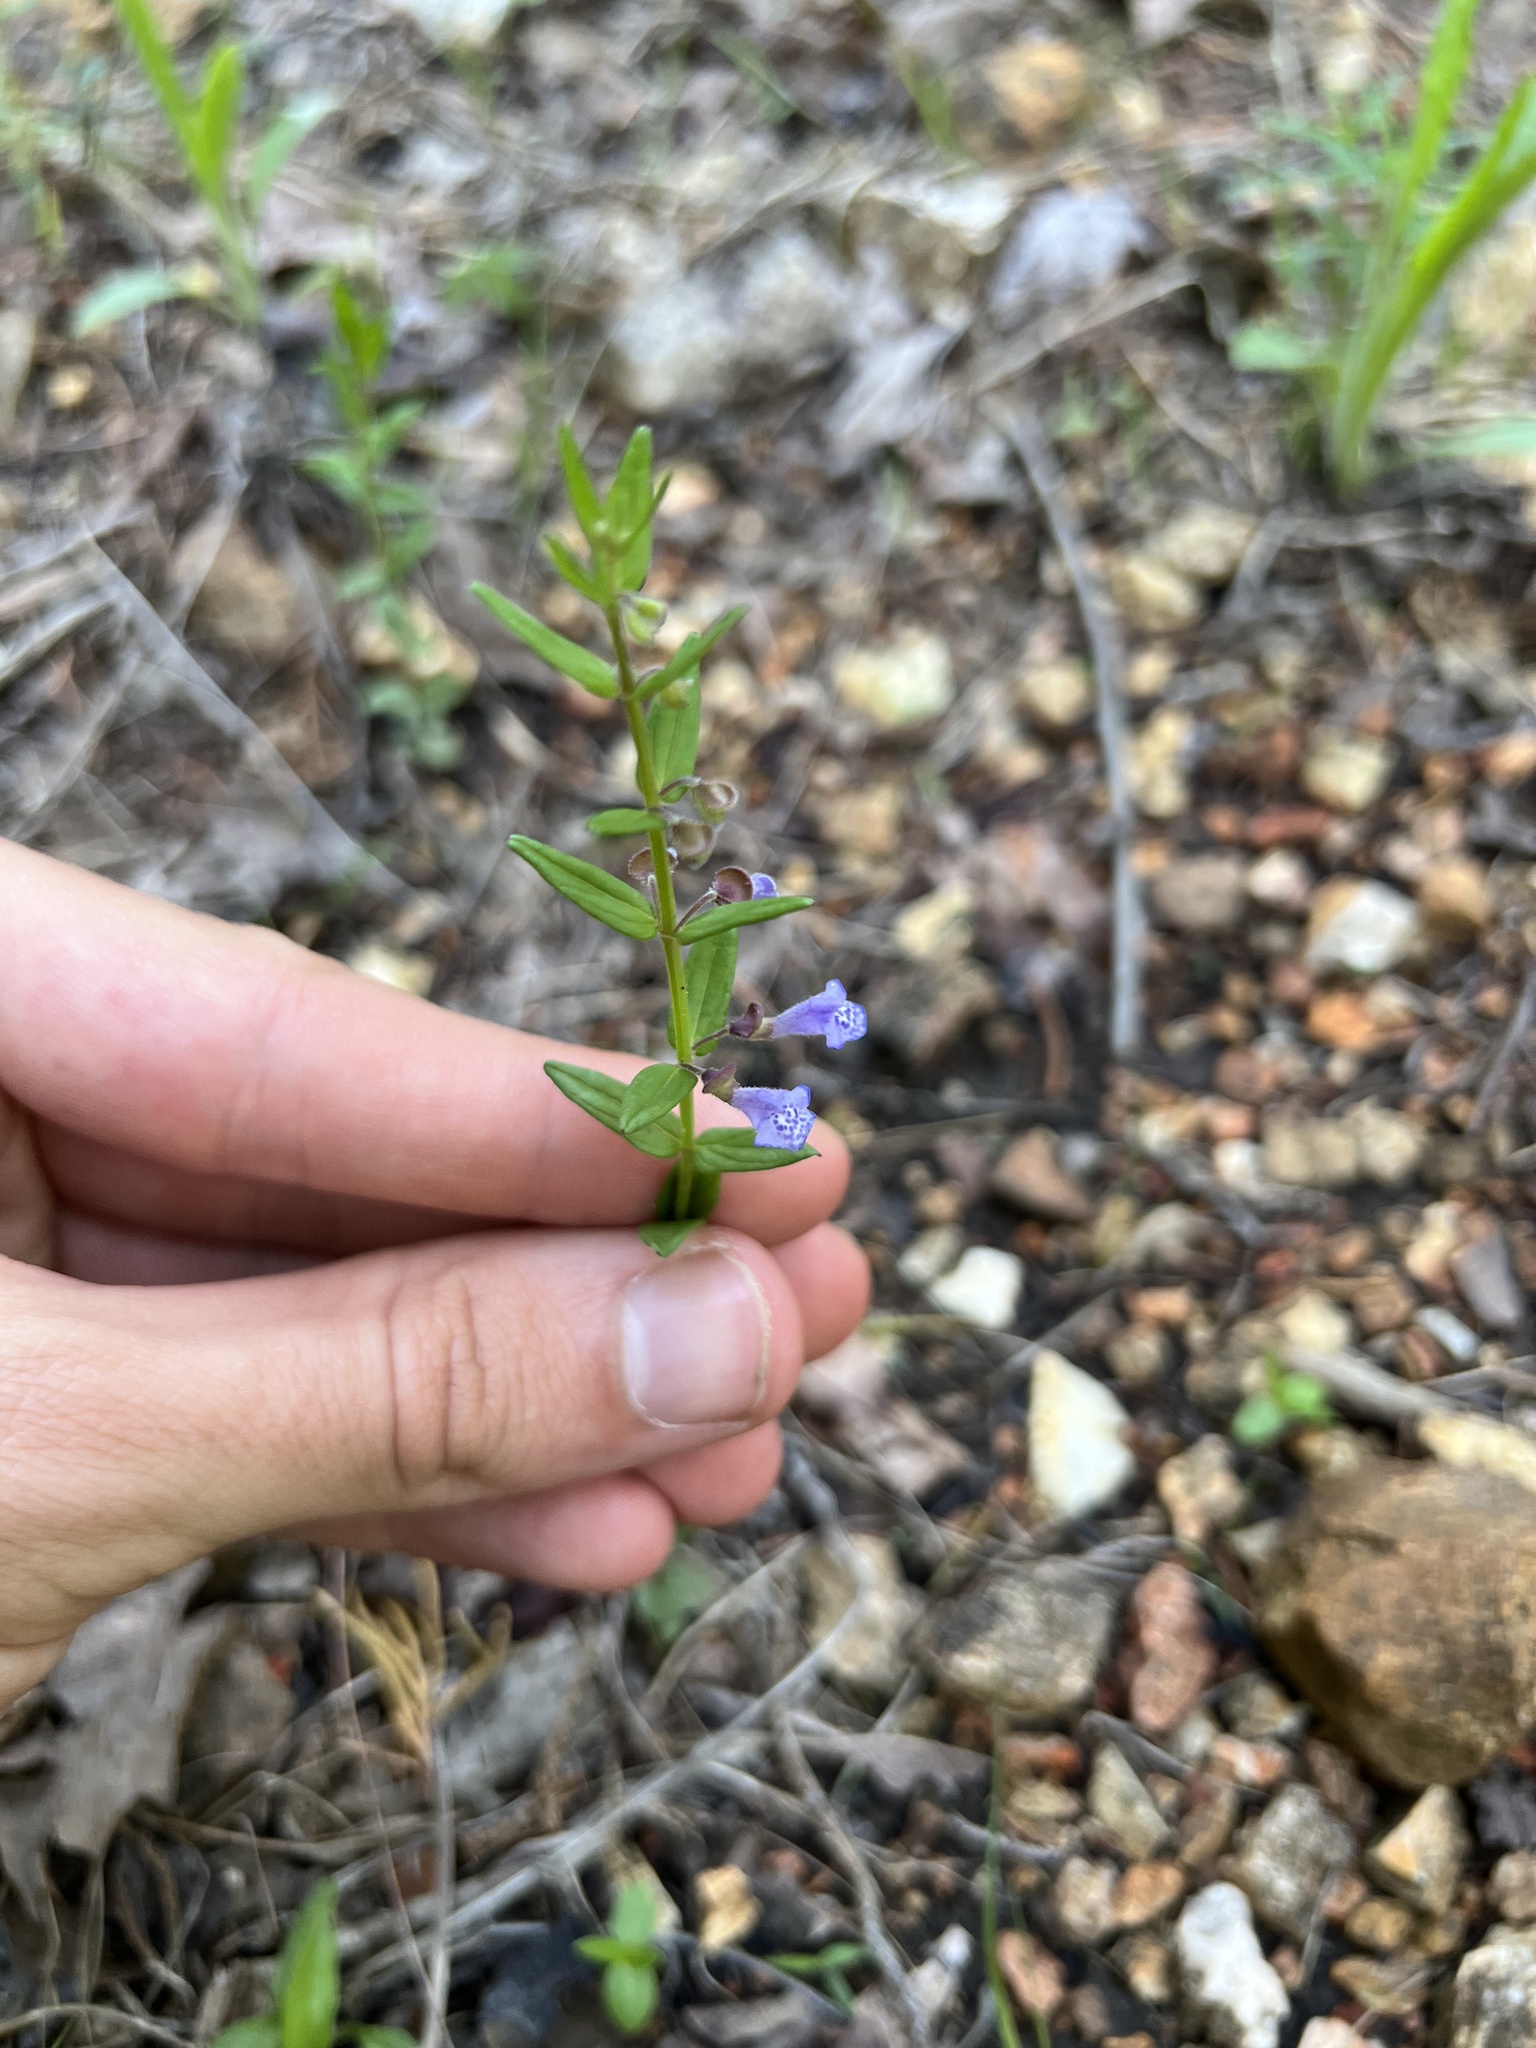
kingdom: Plantae
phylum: Tracheophyta
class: Magnoliopsida
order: Lamiales
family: Lamiaceae
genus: Scutellaria
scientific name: Scutellaria parvula
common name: Little scullcap
